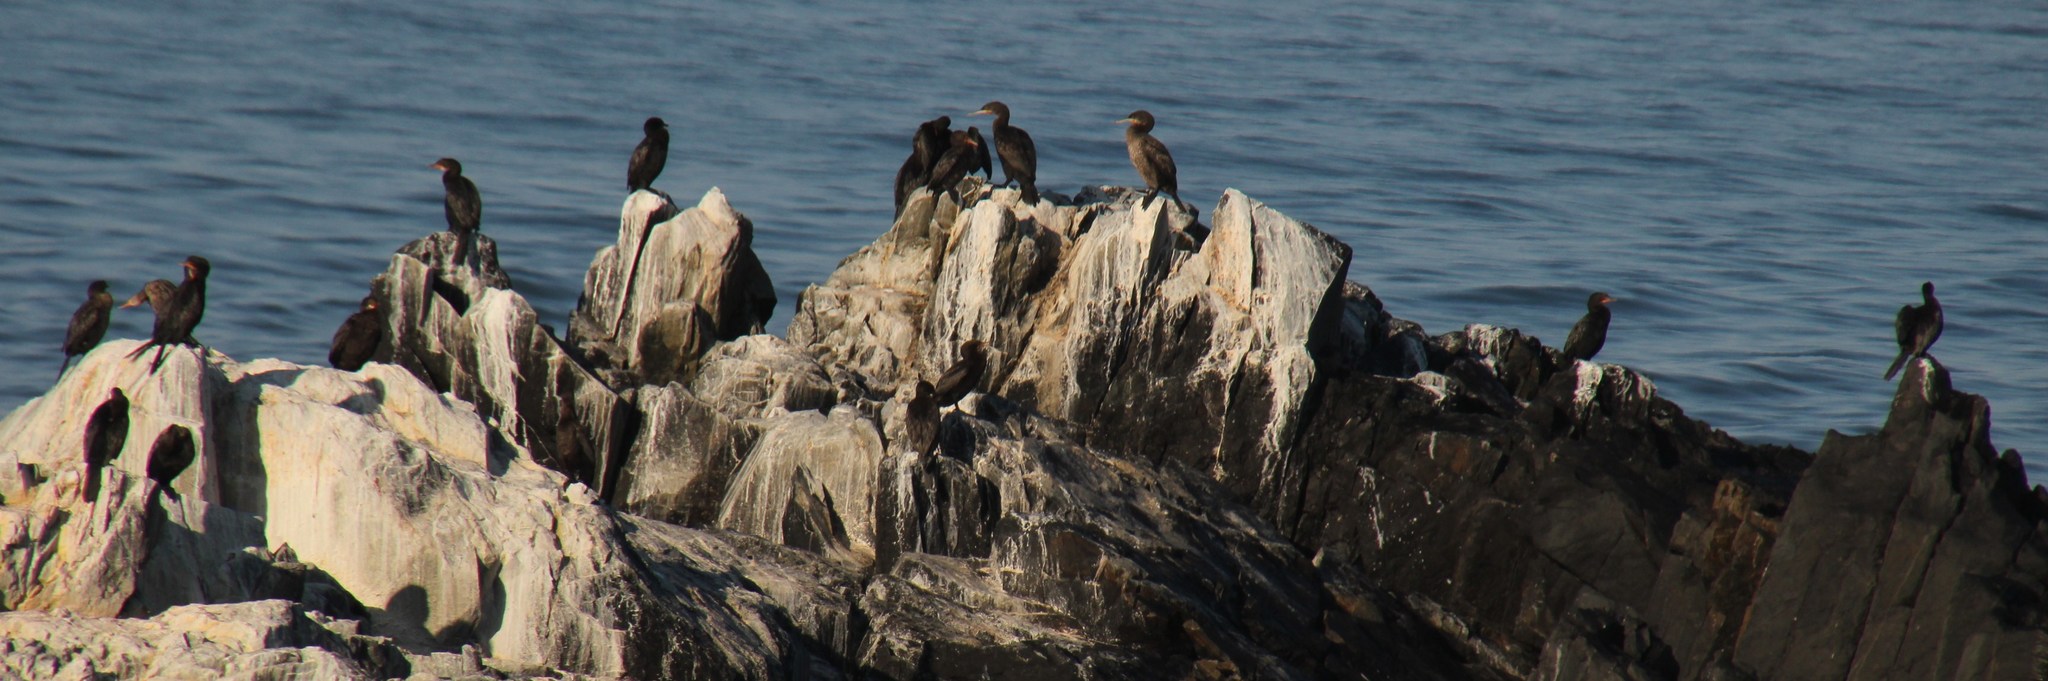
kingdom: Animalia
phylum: Chordata
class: Aves
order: Suliformes
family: Phalacrocoracidae
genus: Phalacrocorax
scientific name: Phalacrocorax capensis
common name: Cape cormorant
